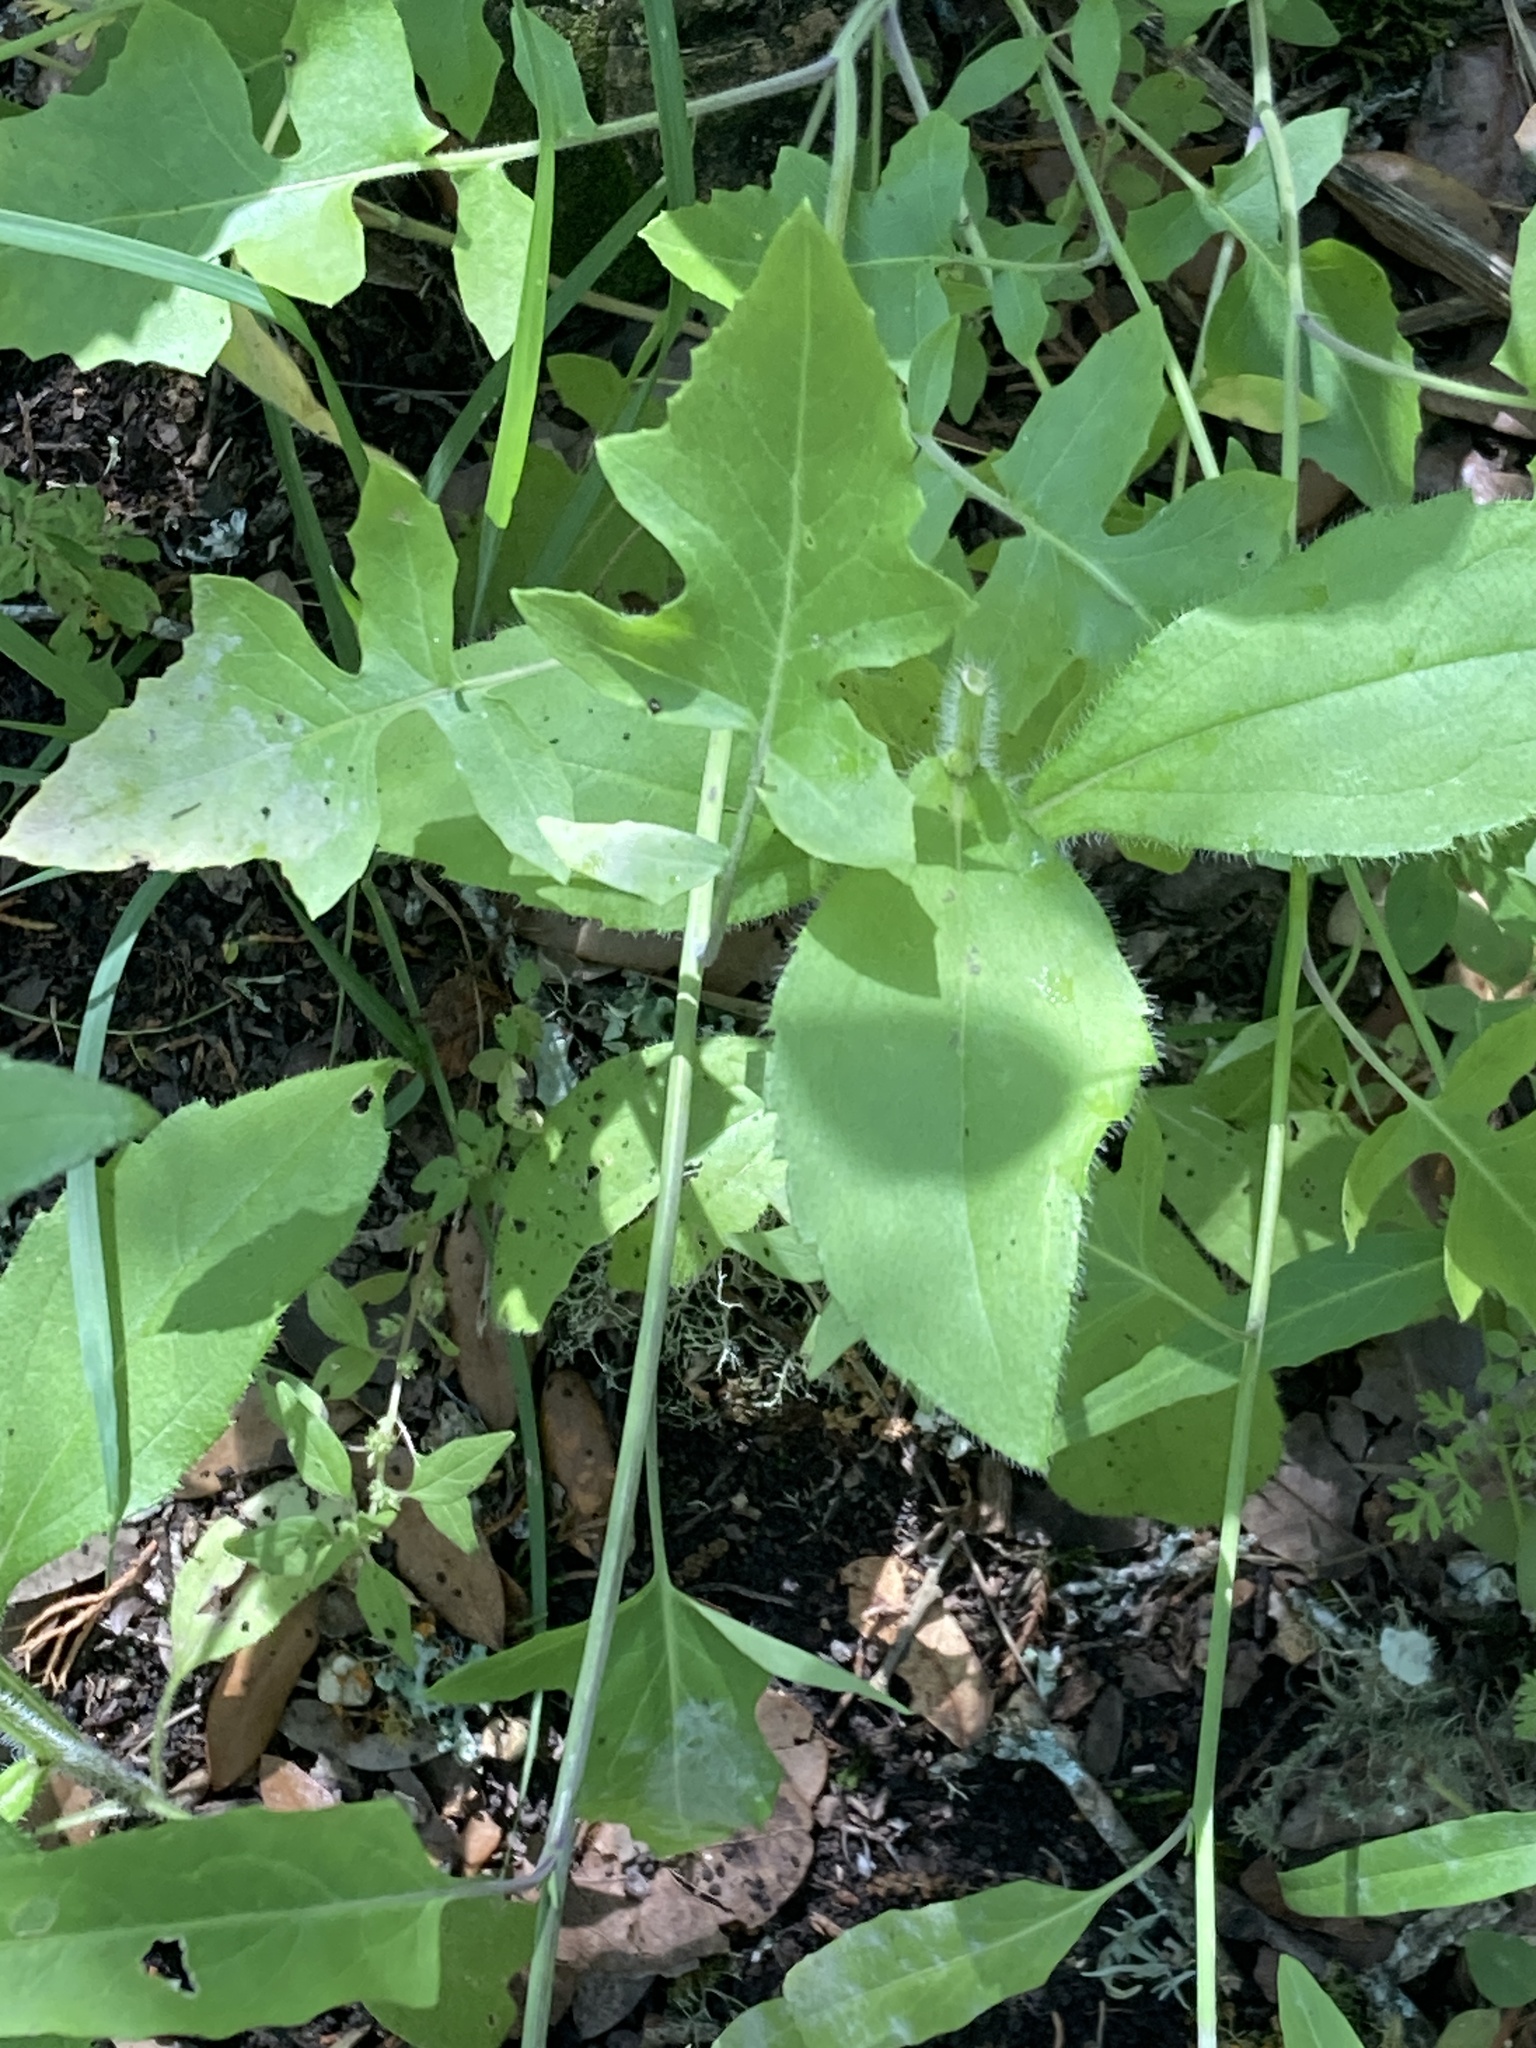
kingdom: Plantae
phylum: Tracheophyta
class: Magnoliopsida
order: Brassicales
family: Brassicaceae
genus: Streptanthus
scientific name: Streptanthus petiolaris
